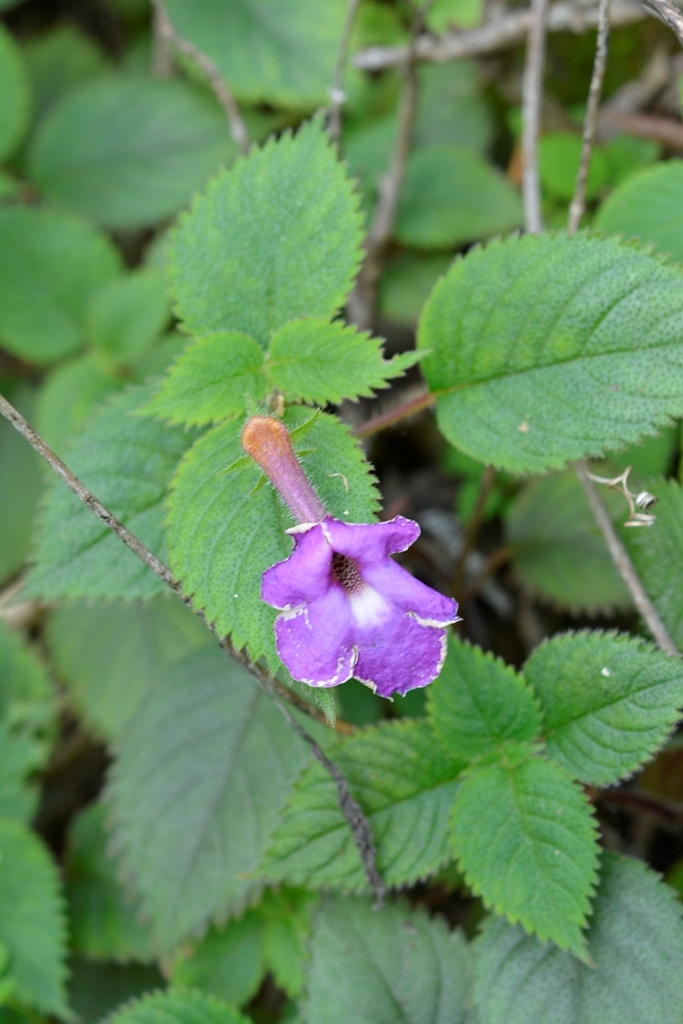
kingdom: Plantae
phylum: Tracheophyta
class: Magnoliopsida
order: Lamiales
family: Gesneriaceae
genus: Achimenes
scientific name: Achimenes grandiflora
